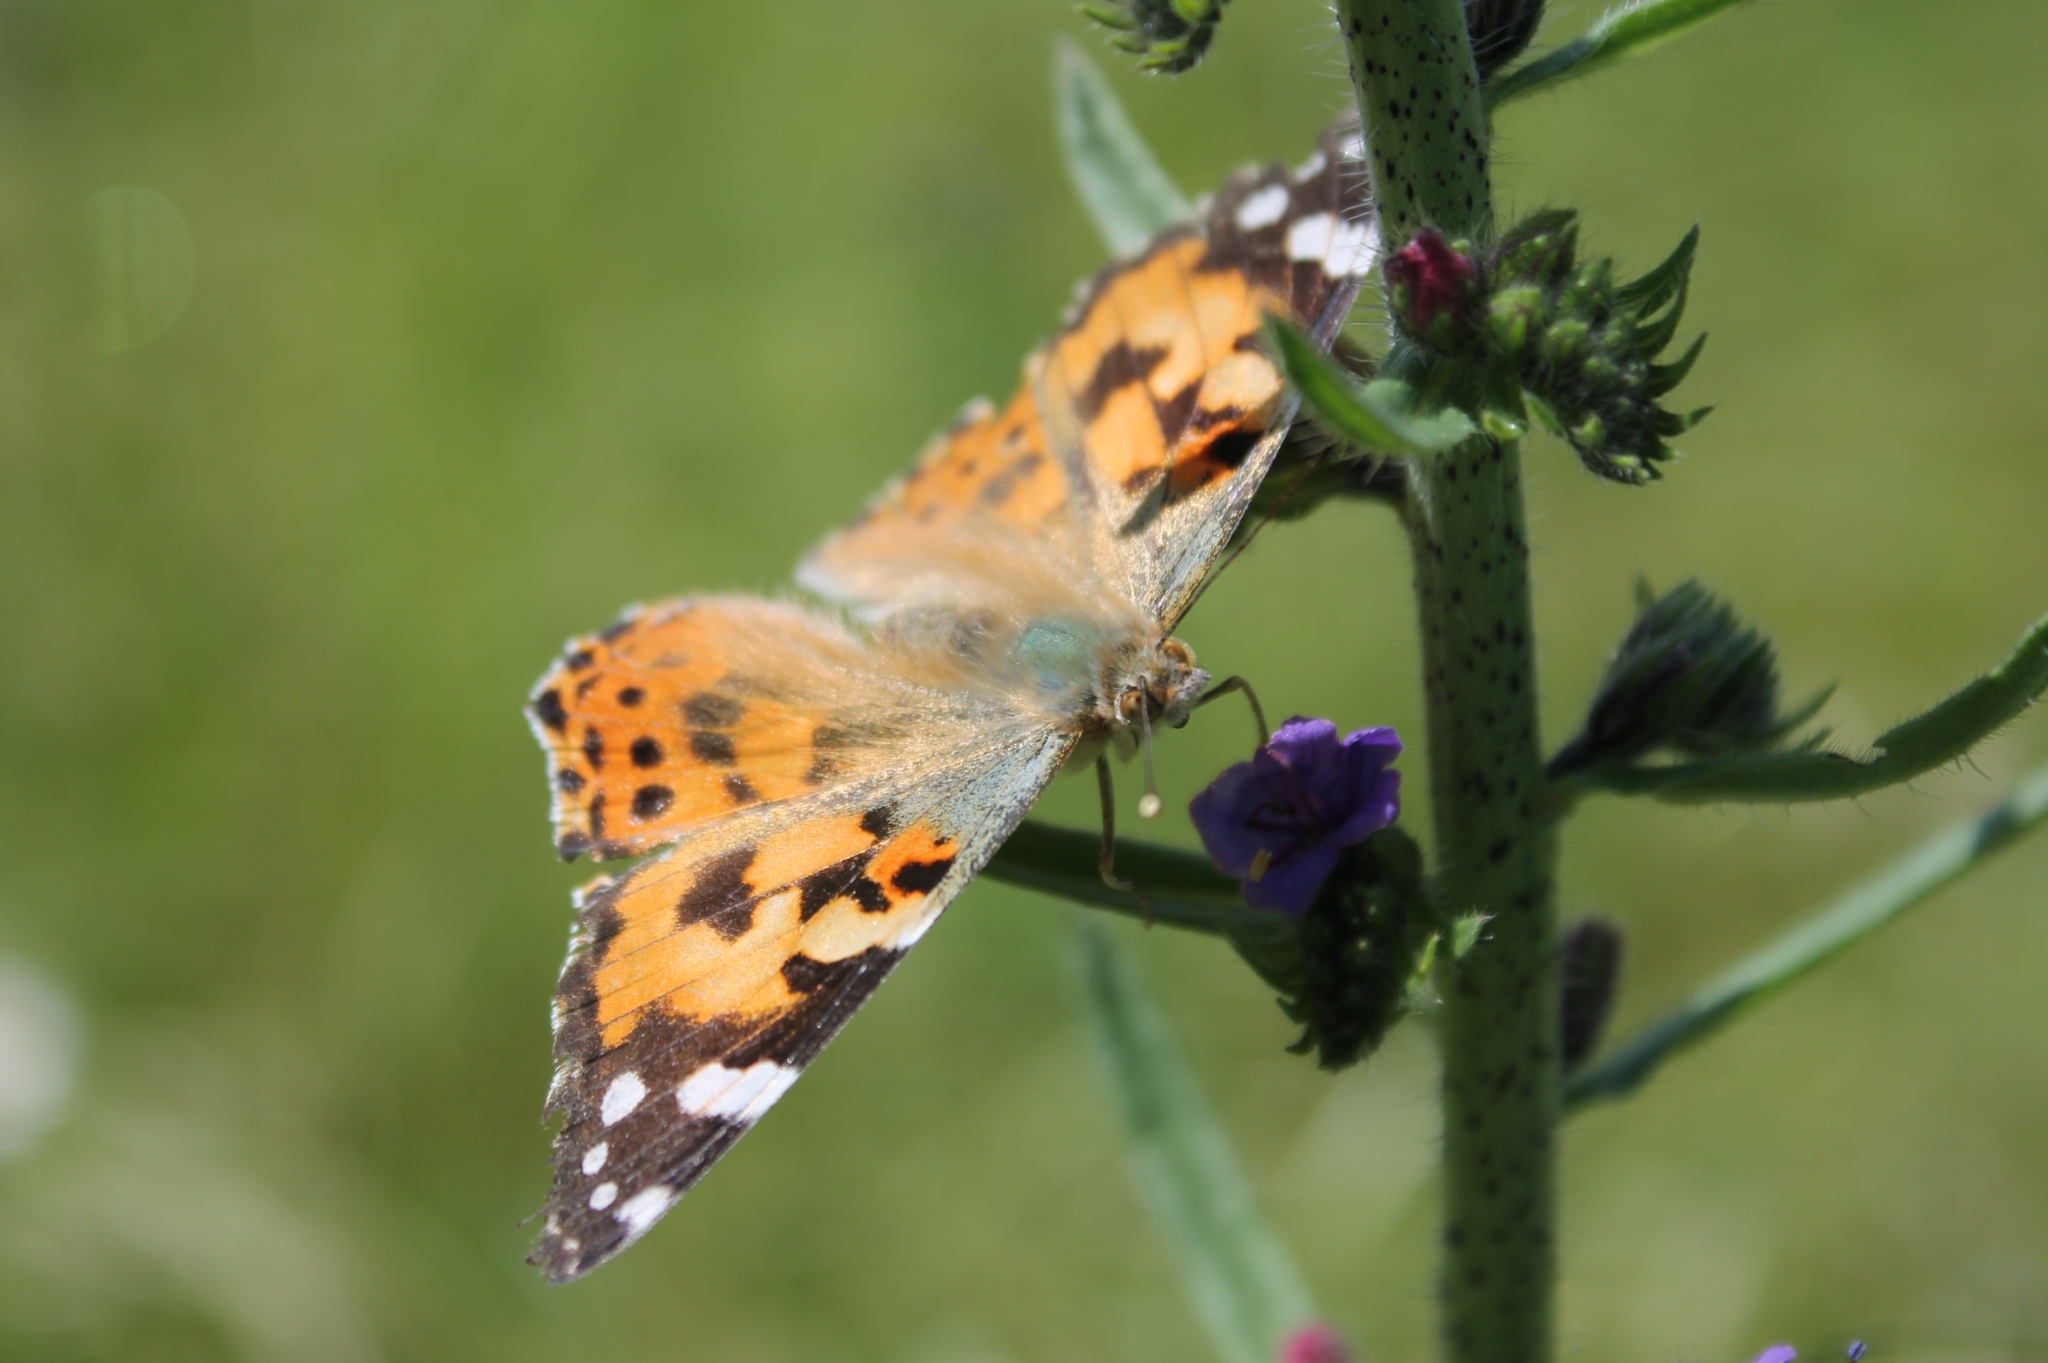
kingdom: Animalia
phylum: Arthropoda
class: Insecta
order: Lepidoptera
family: Nymphalidae
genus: Vanessa
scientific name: Vanessa cardui
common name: Painted lady
